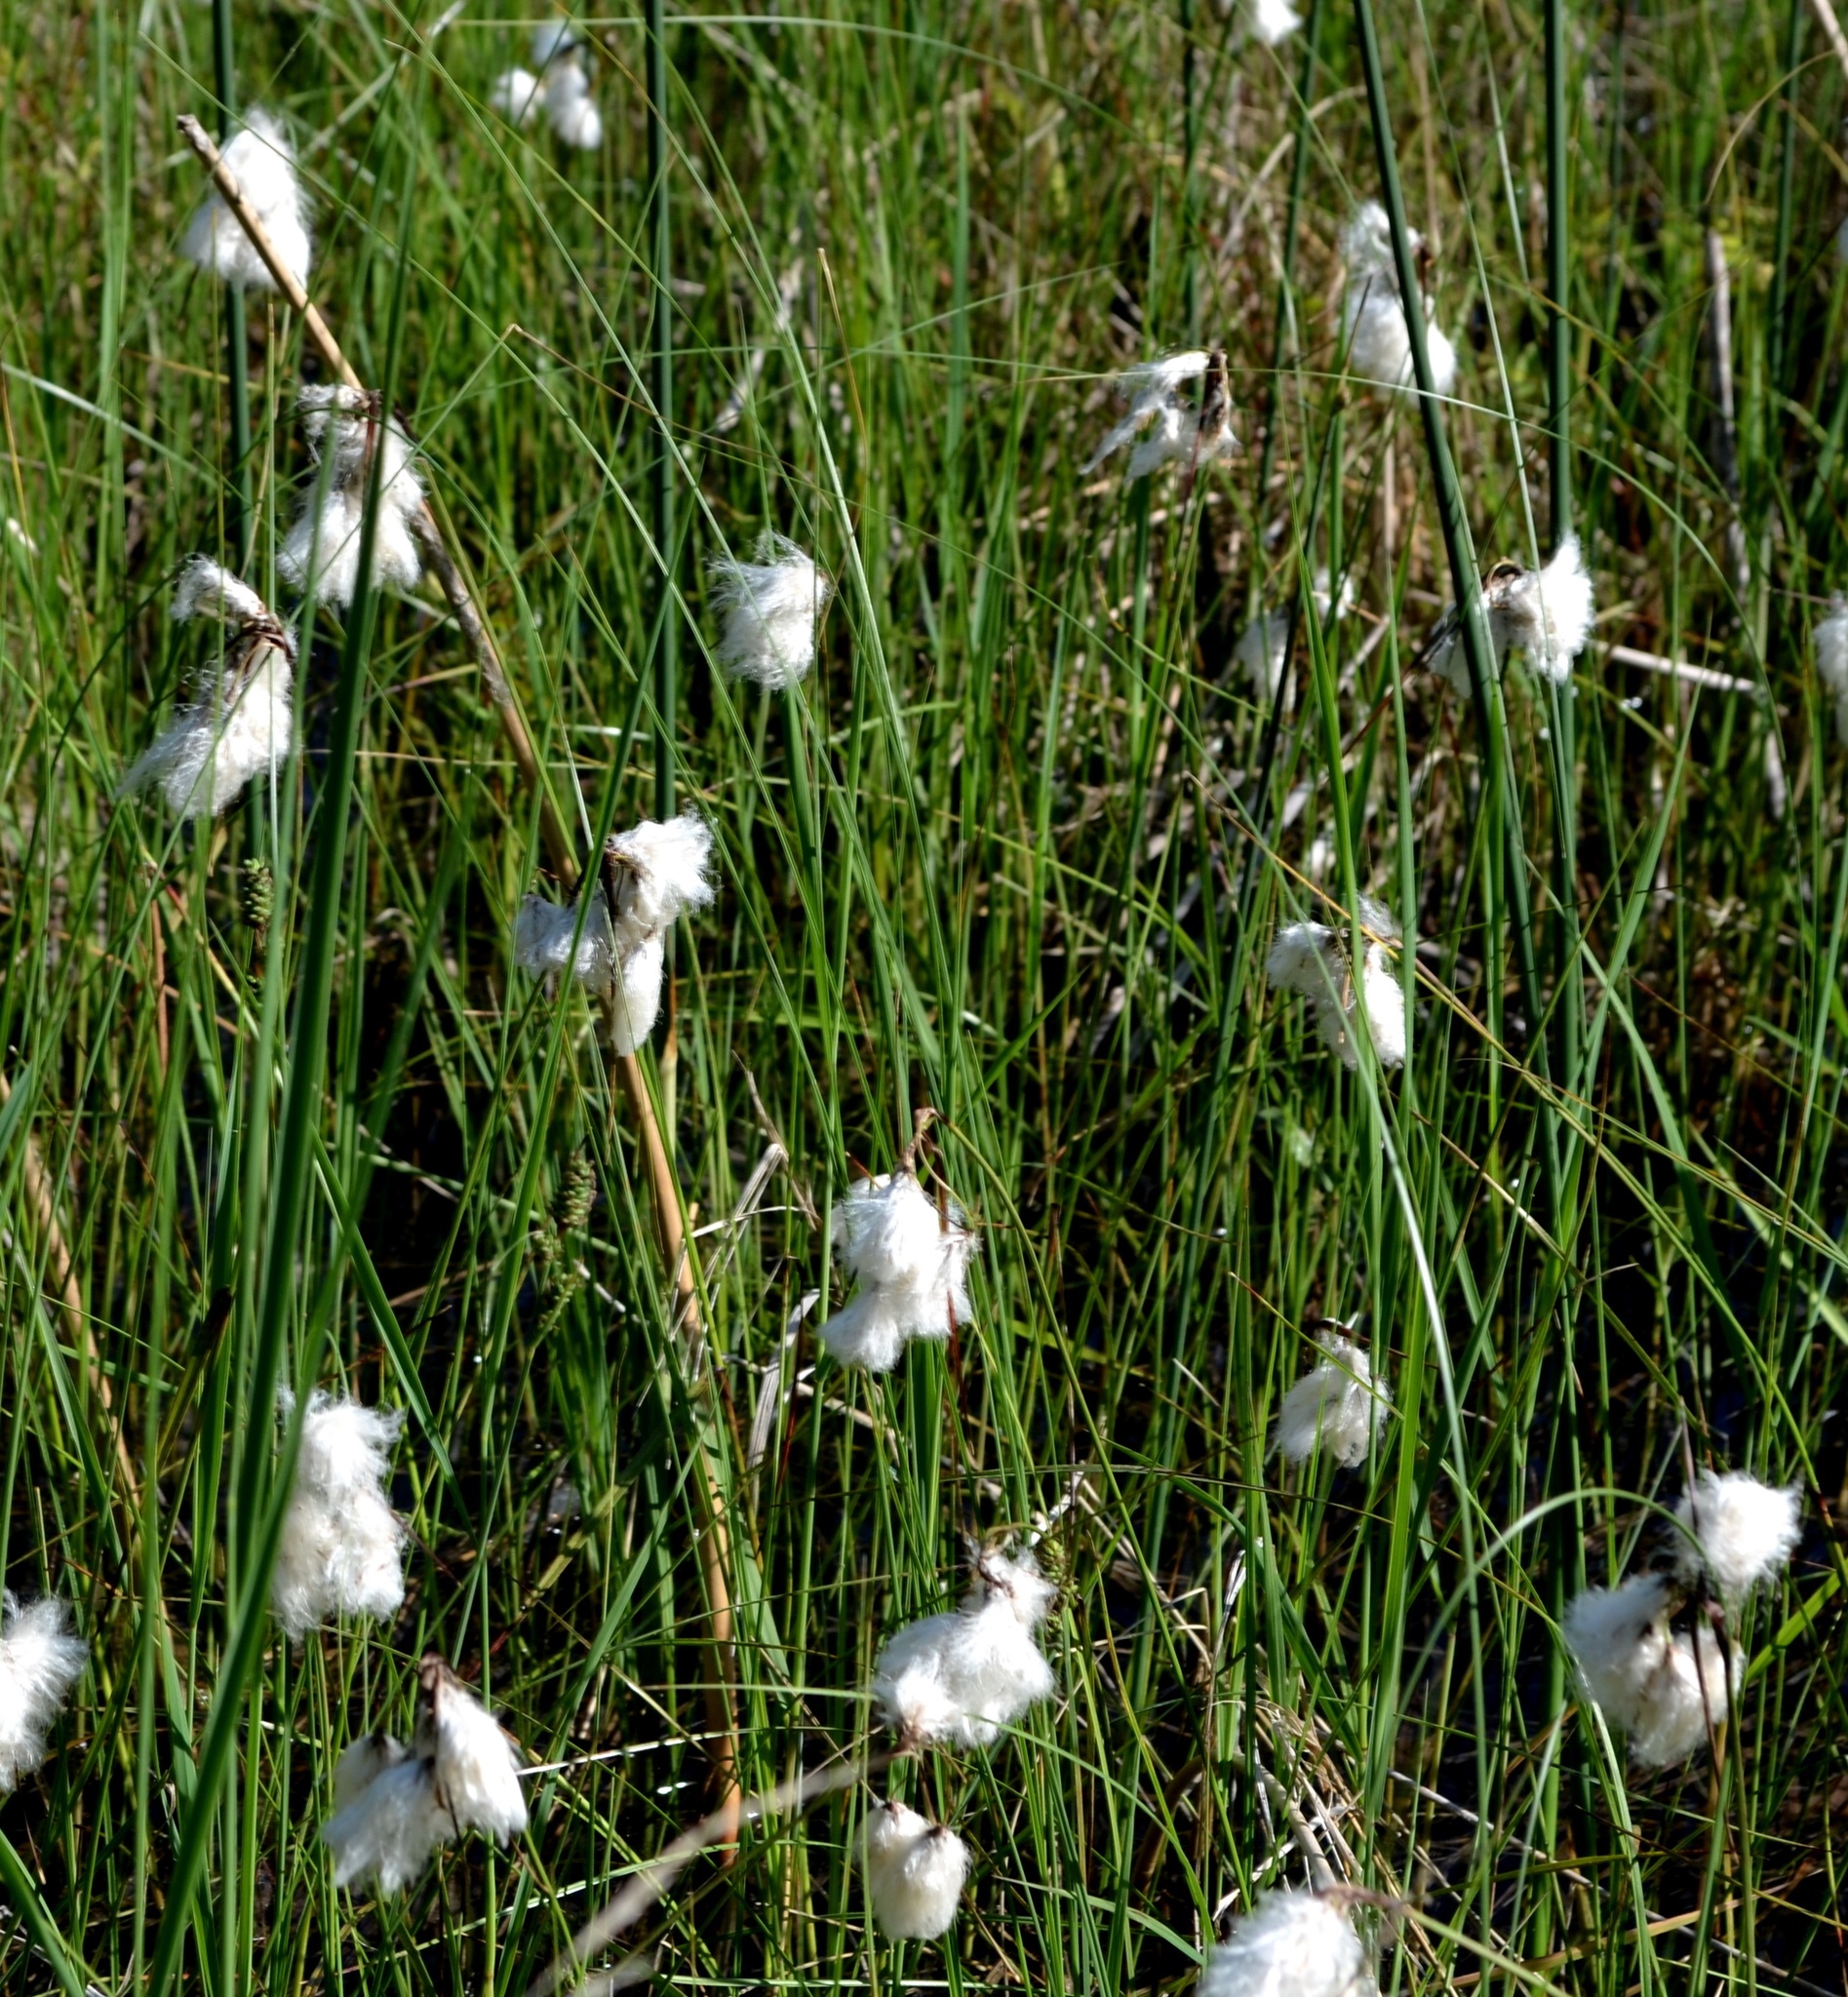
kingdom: Plantae
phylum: Tracheophyta
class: Liliopsida
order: Poales
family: Cyperaceae
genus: Eriophorum
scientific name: Eriophorum angustifolium
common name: Common cottongrass
